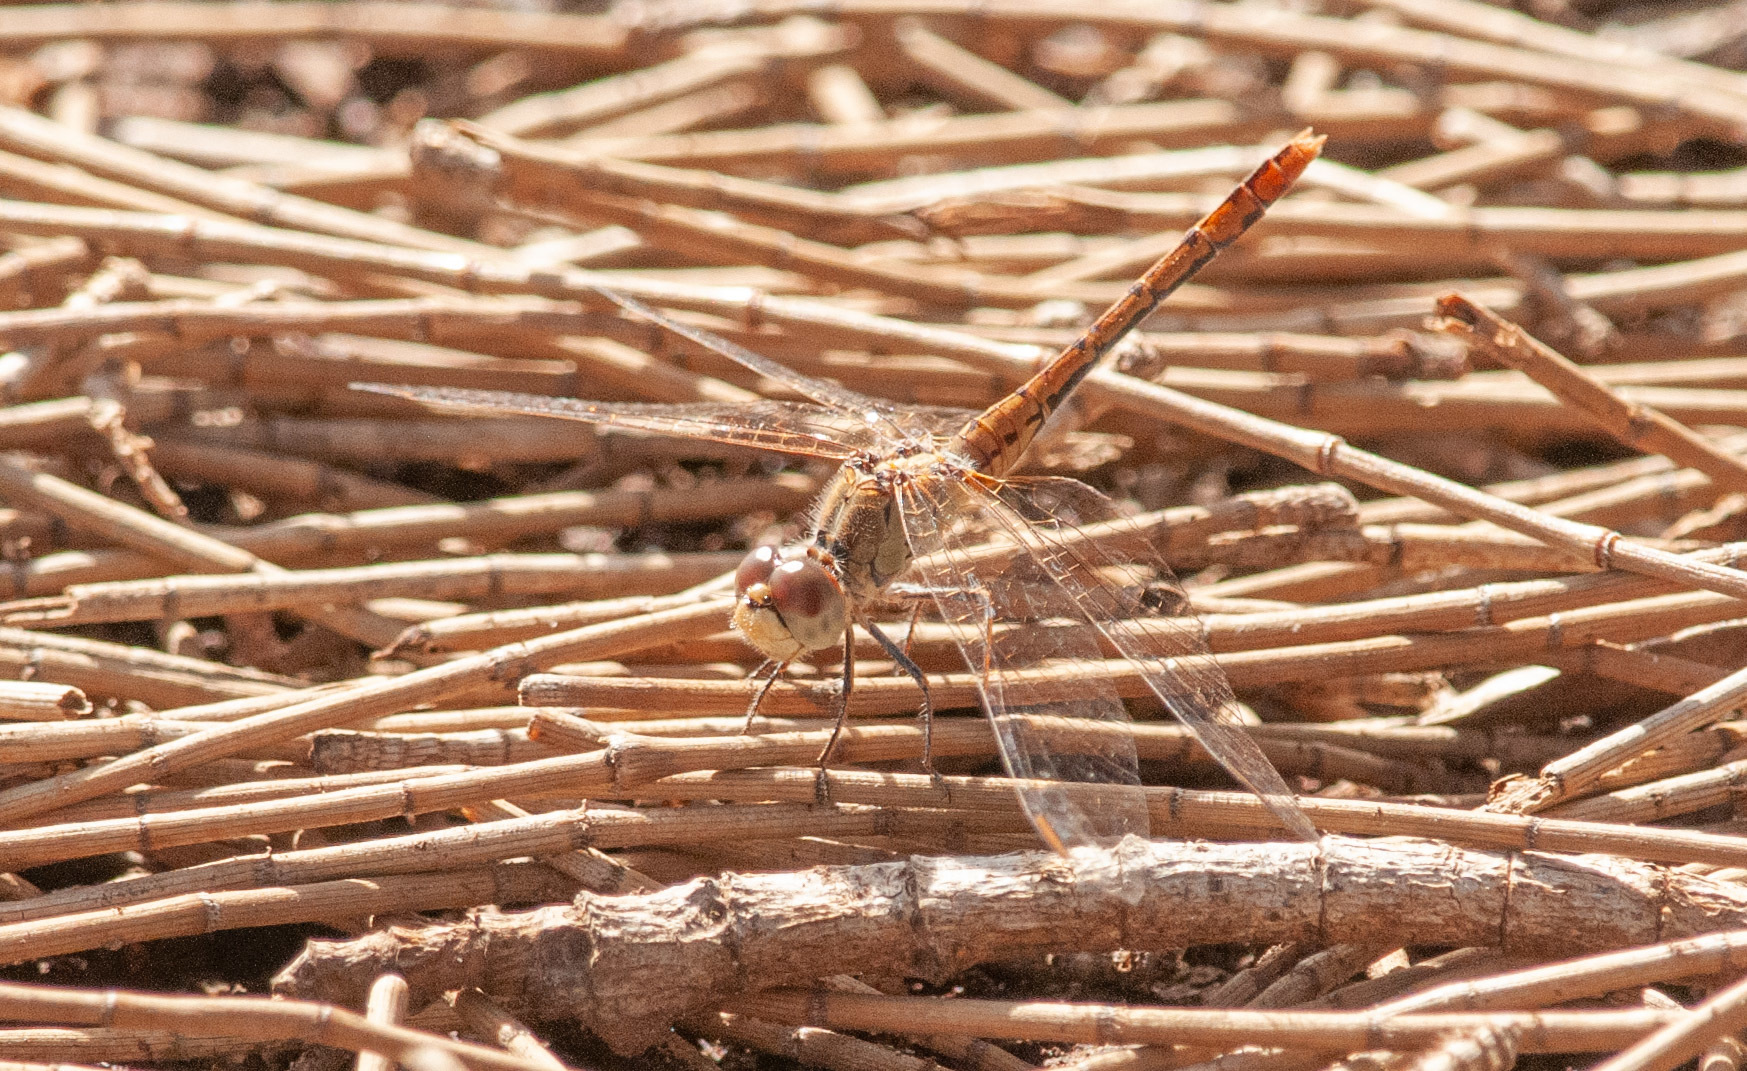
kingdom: Animalia
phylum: Arthropoda
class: Insecta
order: Odonata
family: Libellulidae
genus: Diplacodes
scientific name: Diplacodes bipunctata
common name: Red percher dragonfly
